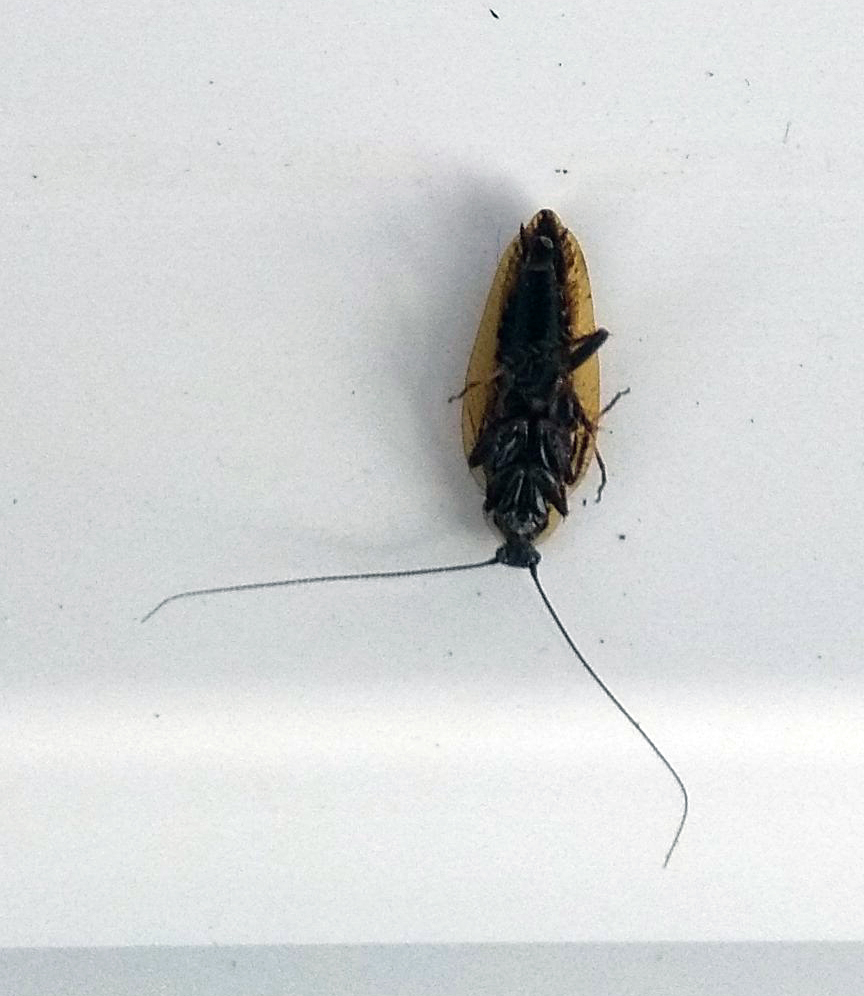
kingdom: Animalia
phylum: Arthropoda
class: Insecta
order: Blattodea
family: Ectobiidae
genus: Ectobius
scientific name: Ectobius lapponicus
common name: Dusky cockroach
